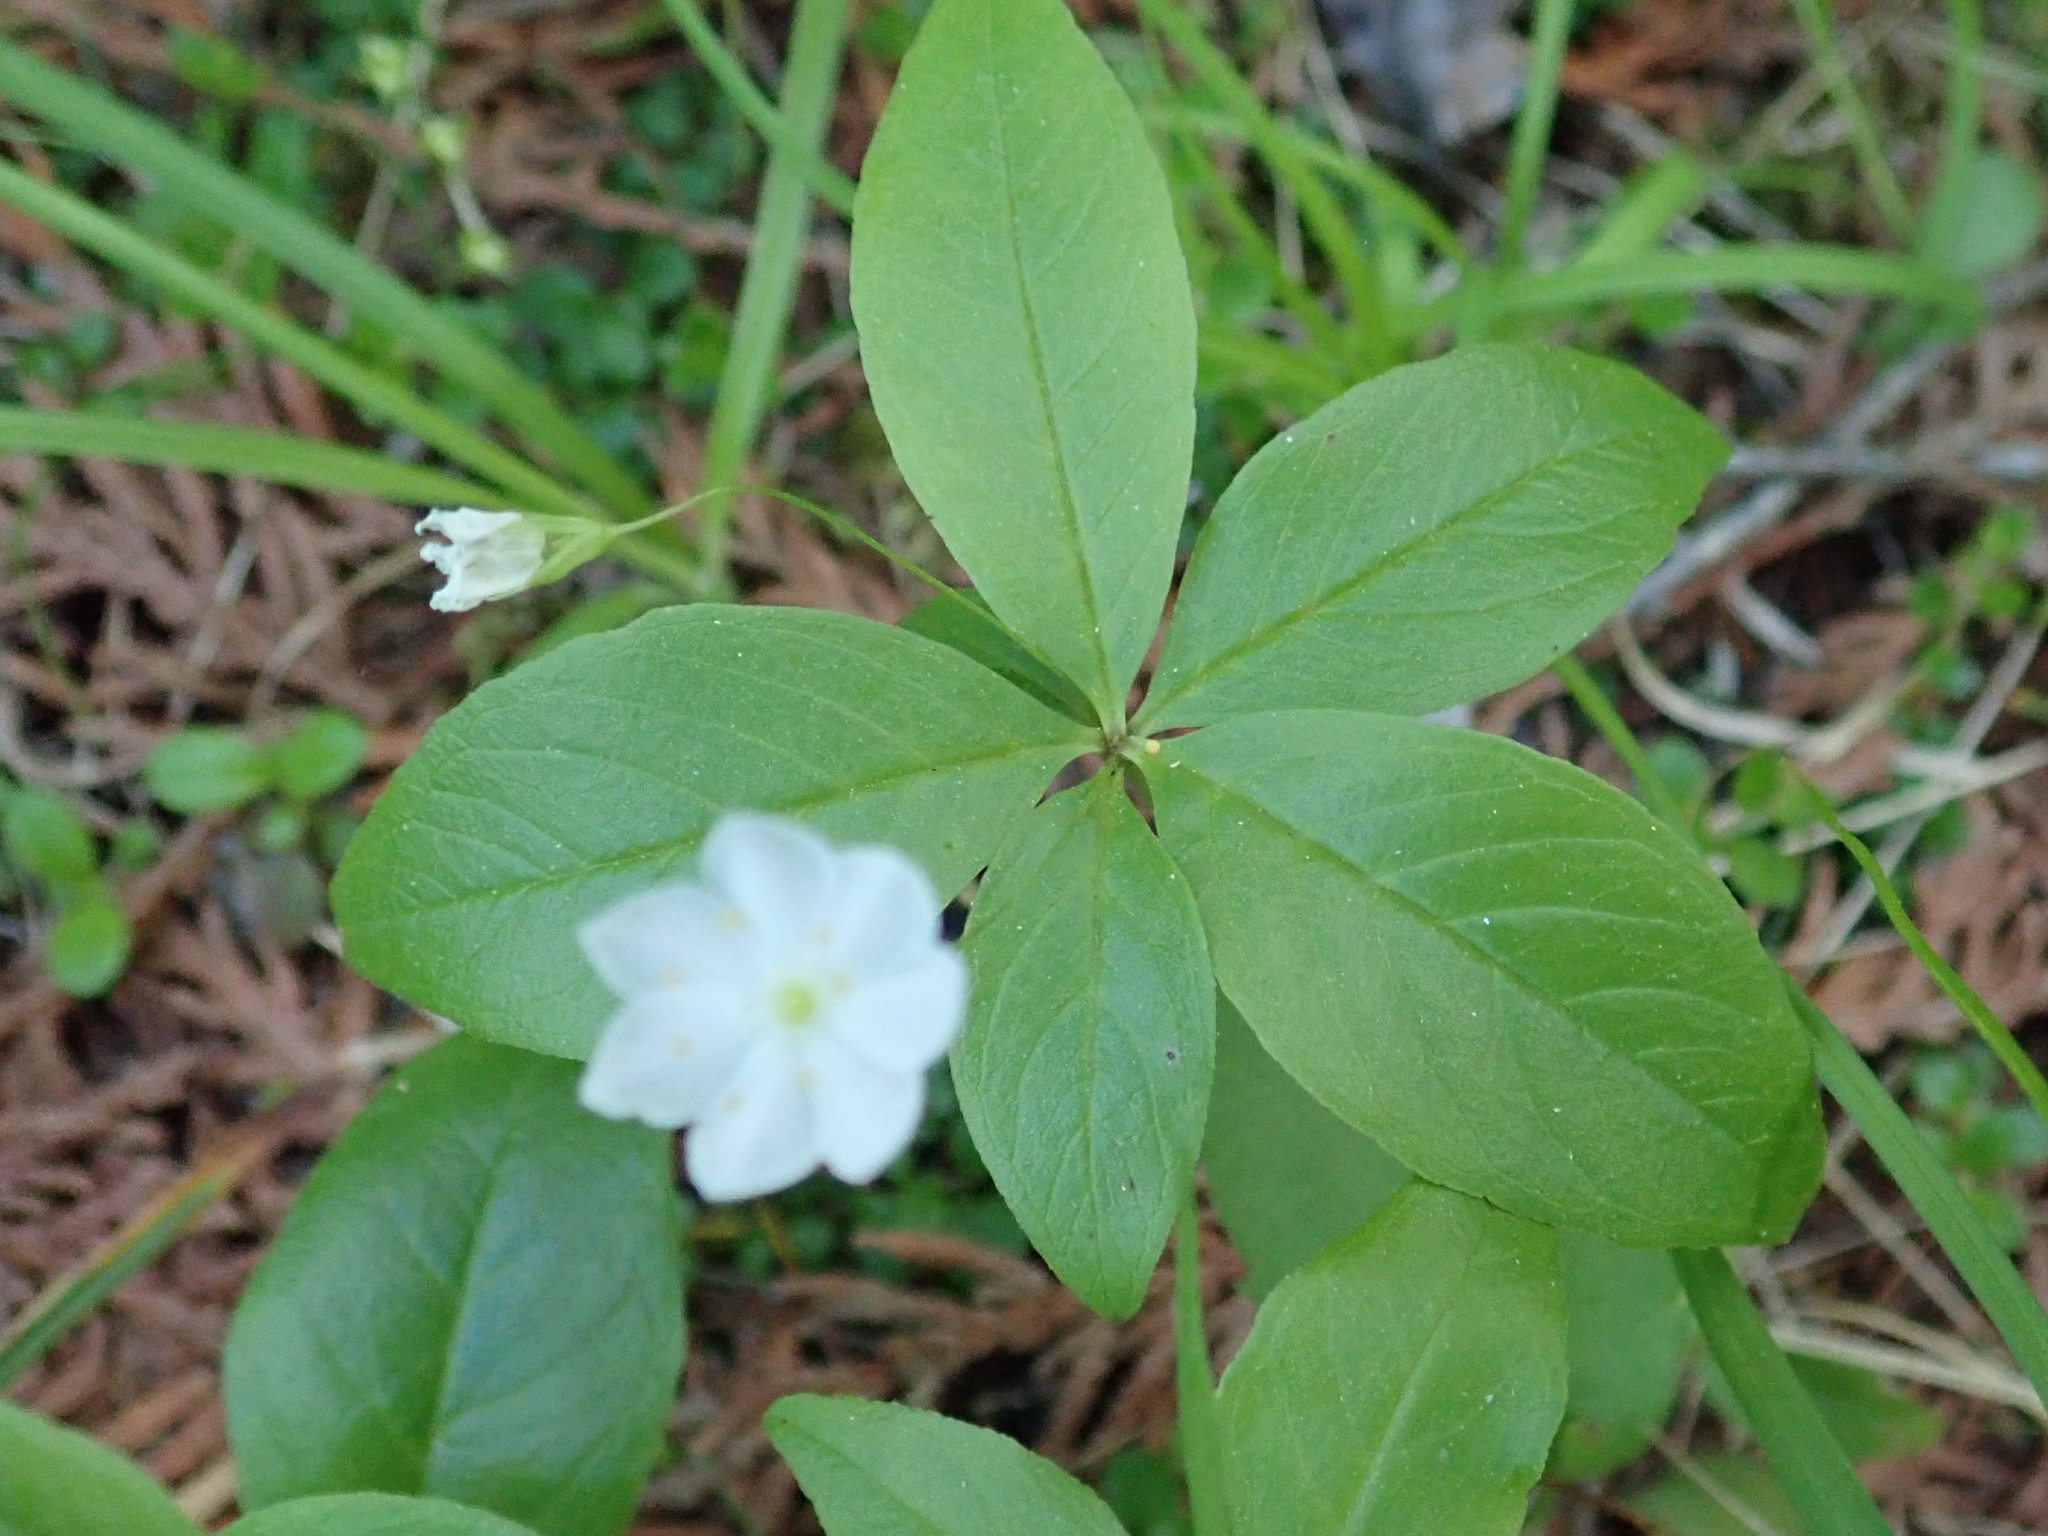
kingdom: Plantae
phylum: Tracheophyta
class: Magnoliopsida
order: Ericales
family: Primulaceae
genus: Lysimachia
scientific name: Lysimachia borealis
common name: American starflower
